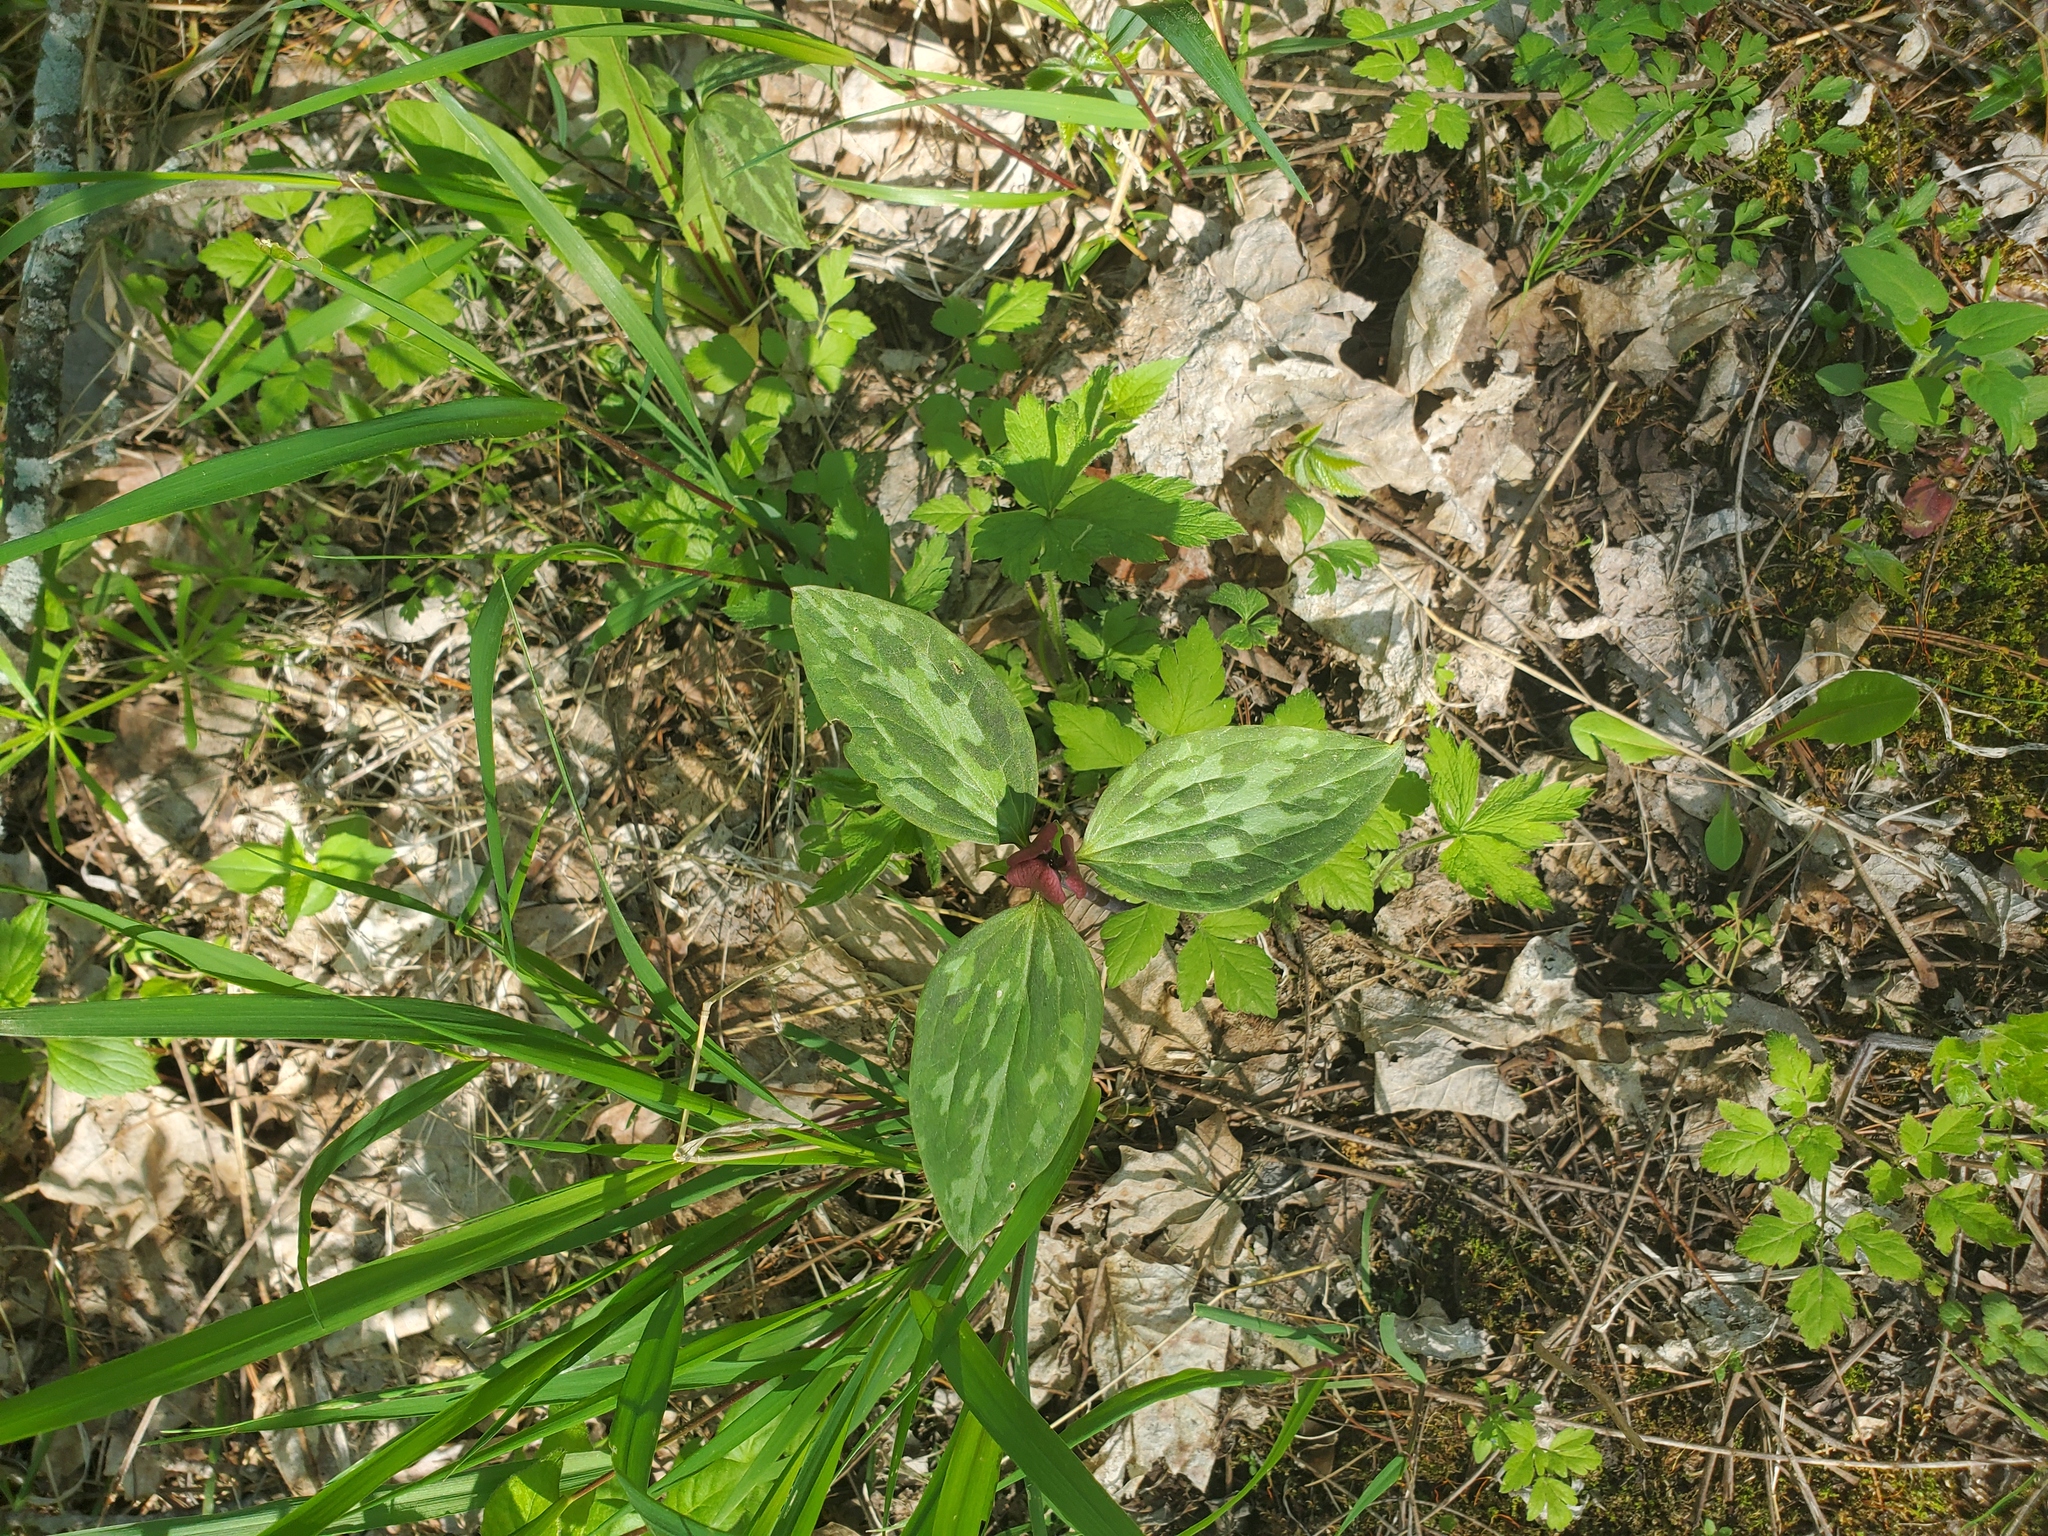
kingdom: Plantae
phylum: Tracheophyta
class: Liliopsida
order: Liliales
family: Melanthiaceae
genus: Trillium
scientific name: Trillium recurvatum
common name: Bloody butcher
